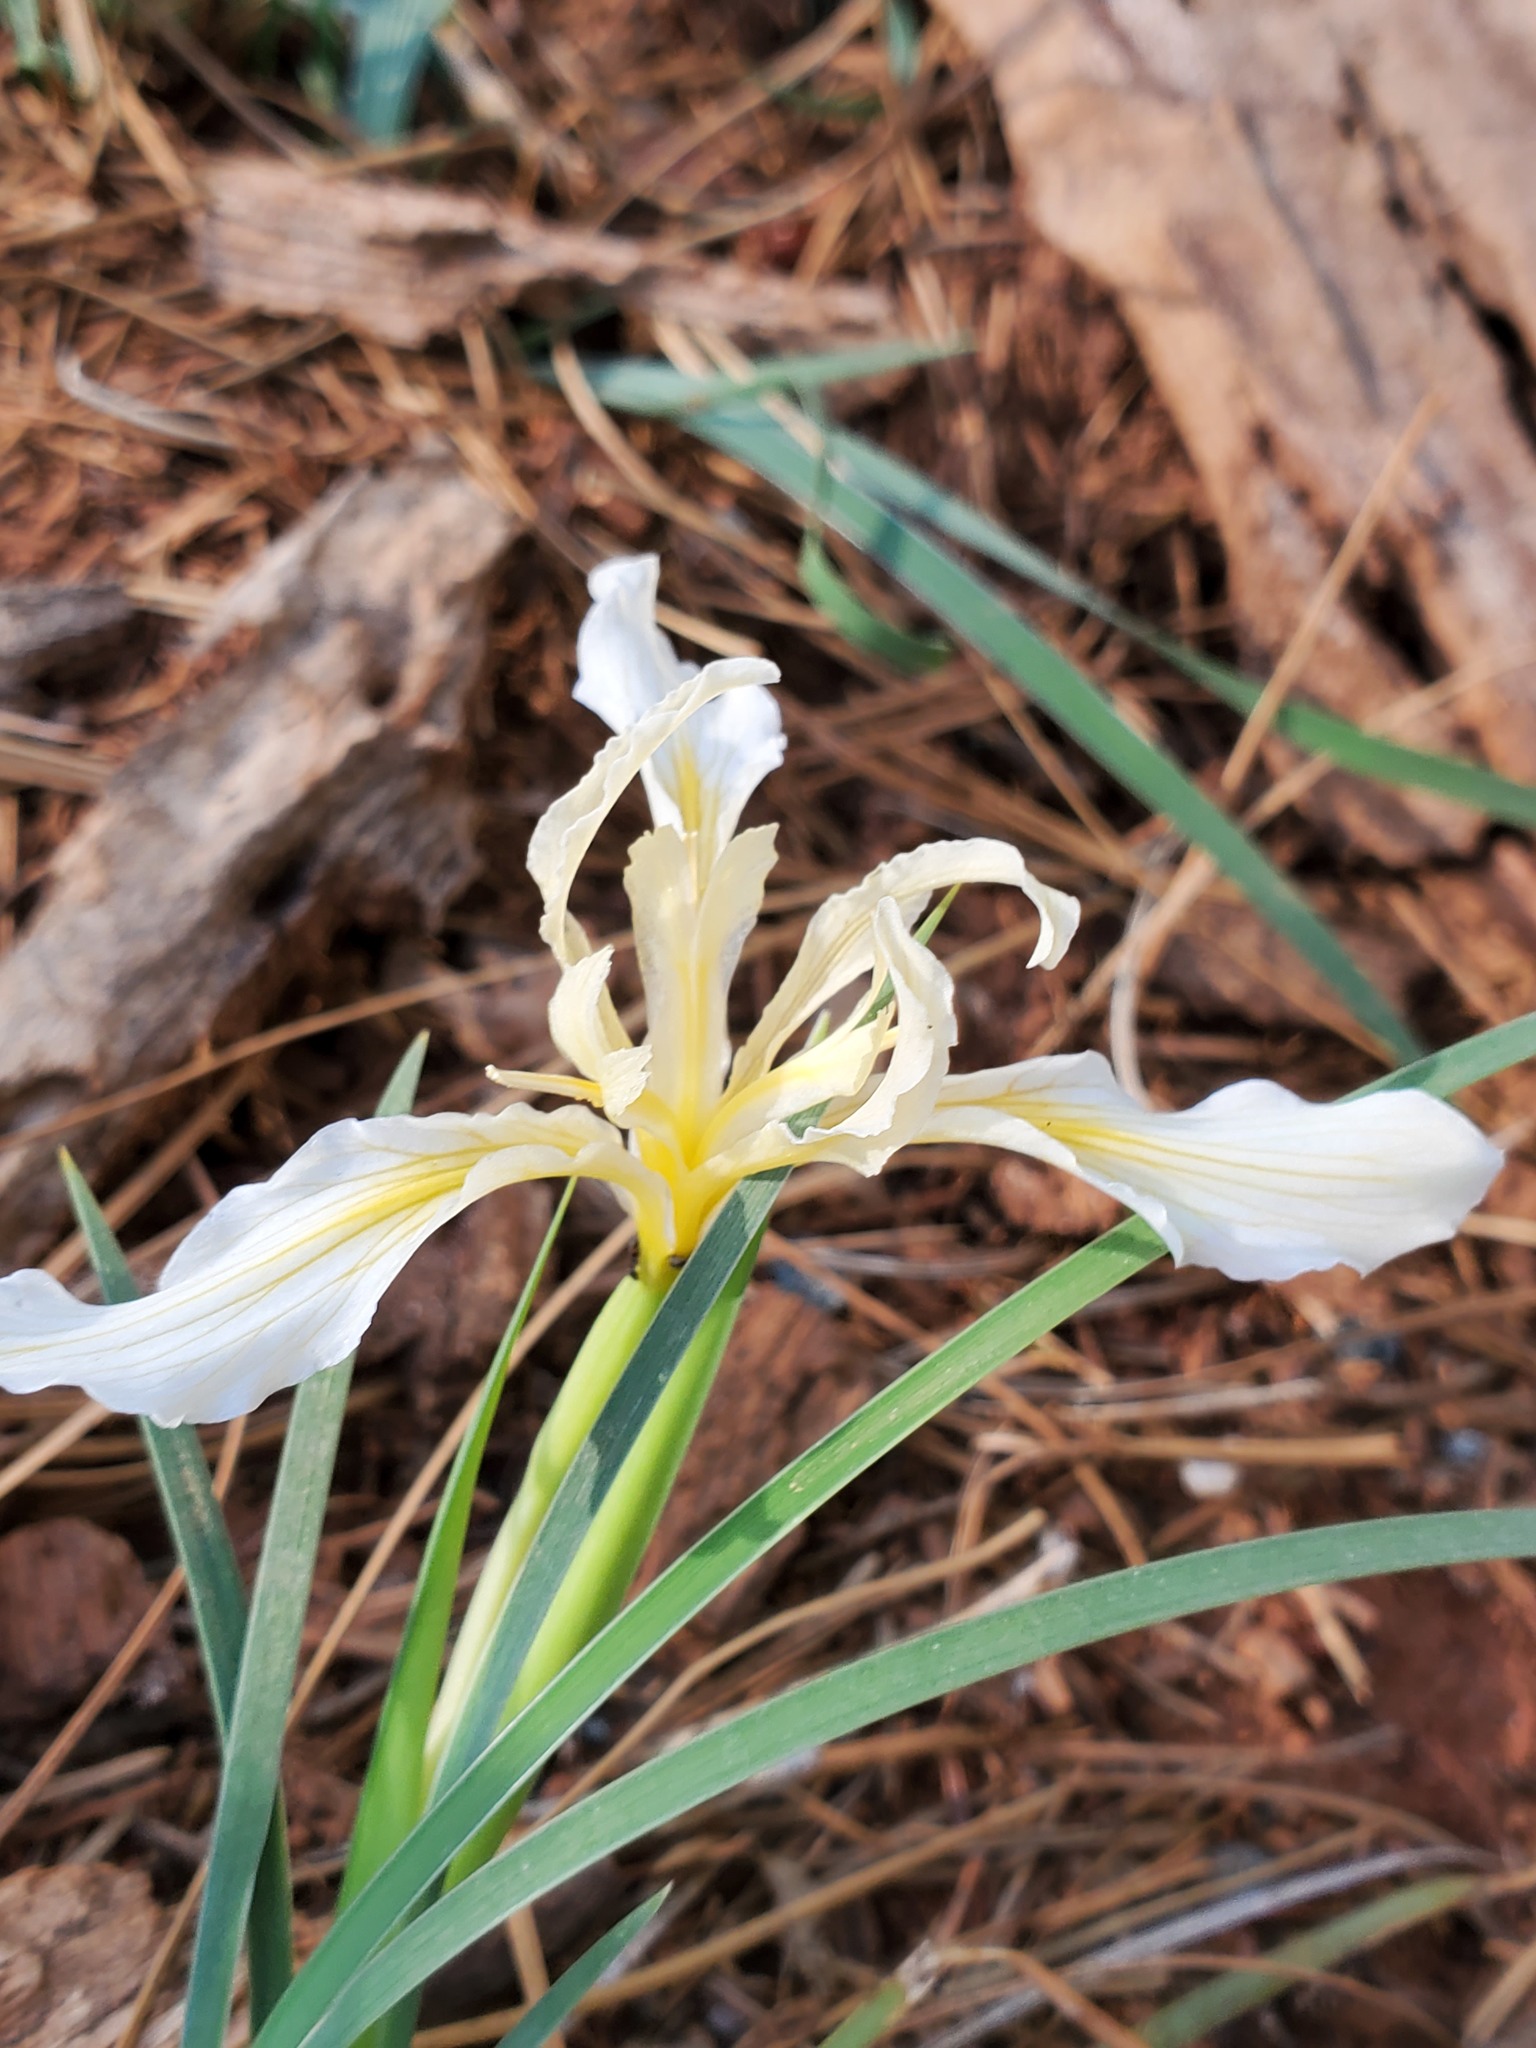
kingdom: Plantae
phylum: Tracheophyta
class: Liliopsida
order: Asparagales
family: Iridaceae
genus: Iris
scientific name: Iris hartwegii
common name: Sierra iris
